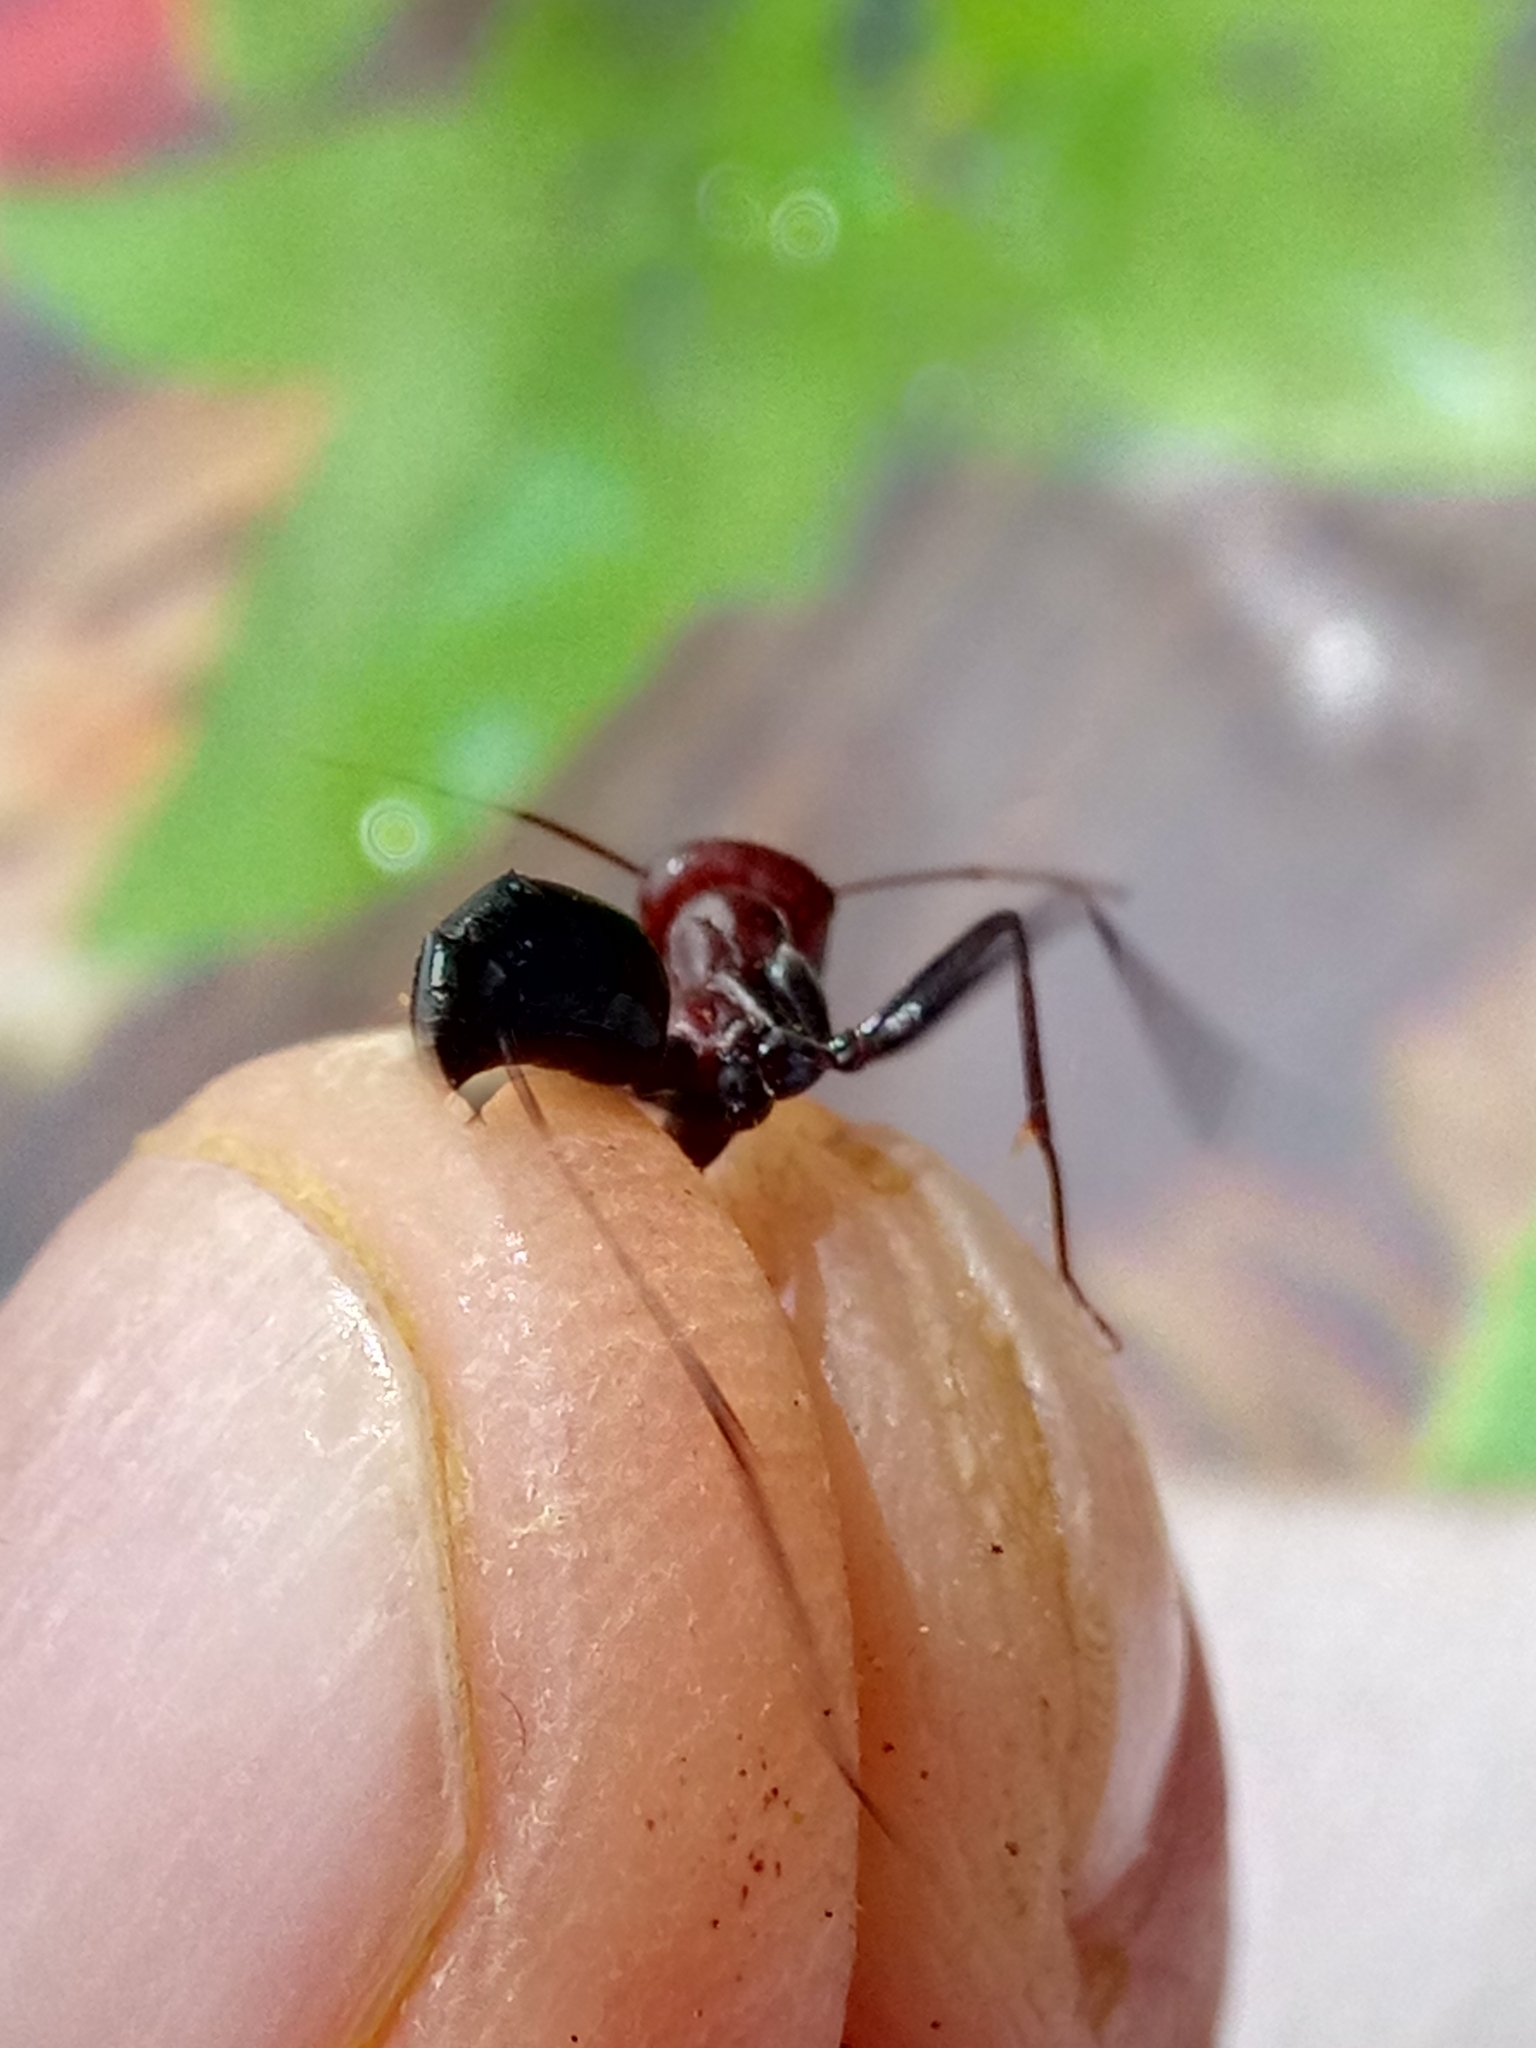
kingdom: Animalia
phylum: Arthropoda
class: Insecta
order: Hymenoptera
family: Formicidae
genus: Cataglyphis
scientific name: Cataglyphis nodus
